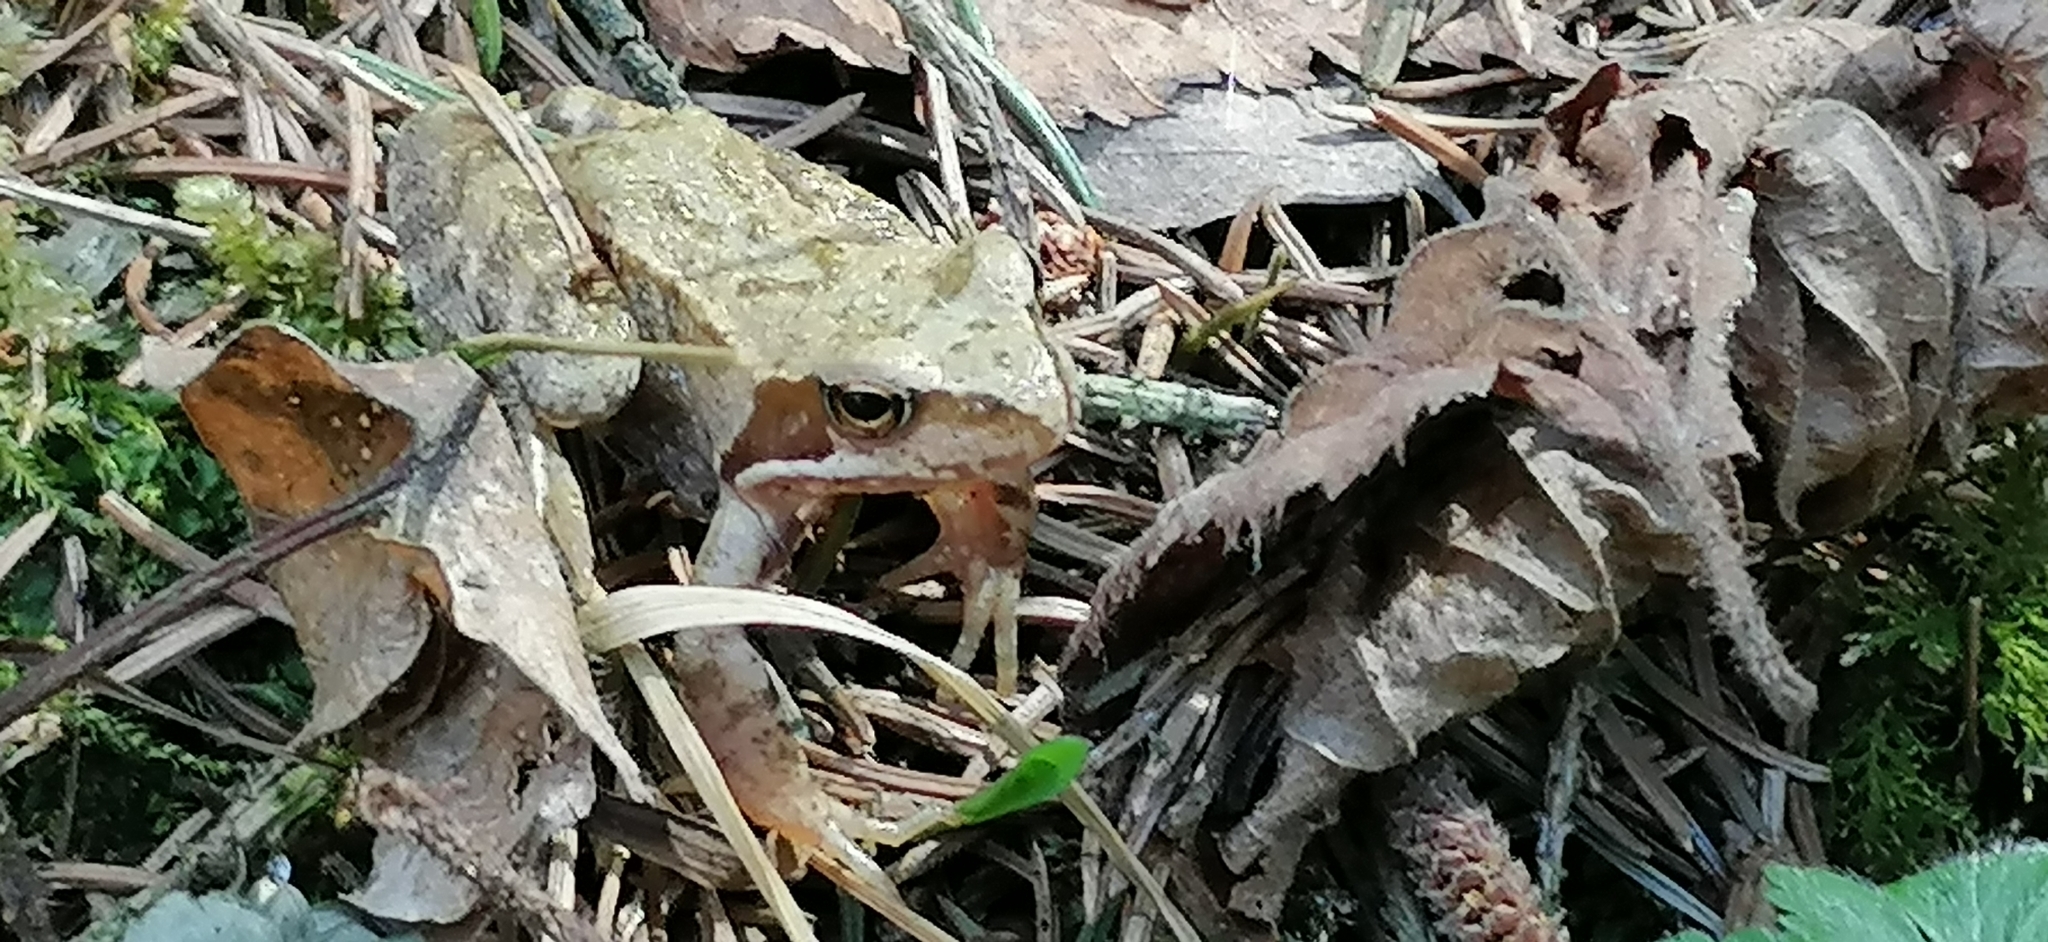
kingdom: Animalia
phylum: Chordata
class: Amphibia
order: Anura
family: Ranidae
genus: Rana
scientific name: Rana temporaria
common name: Common frog
